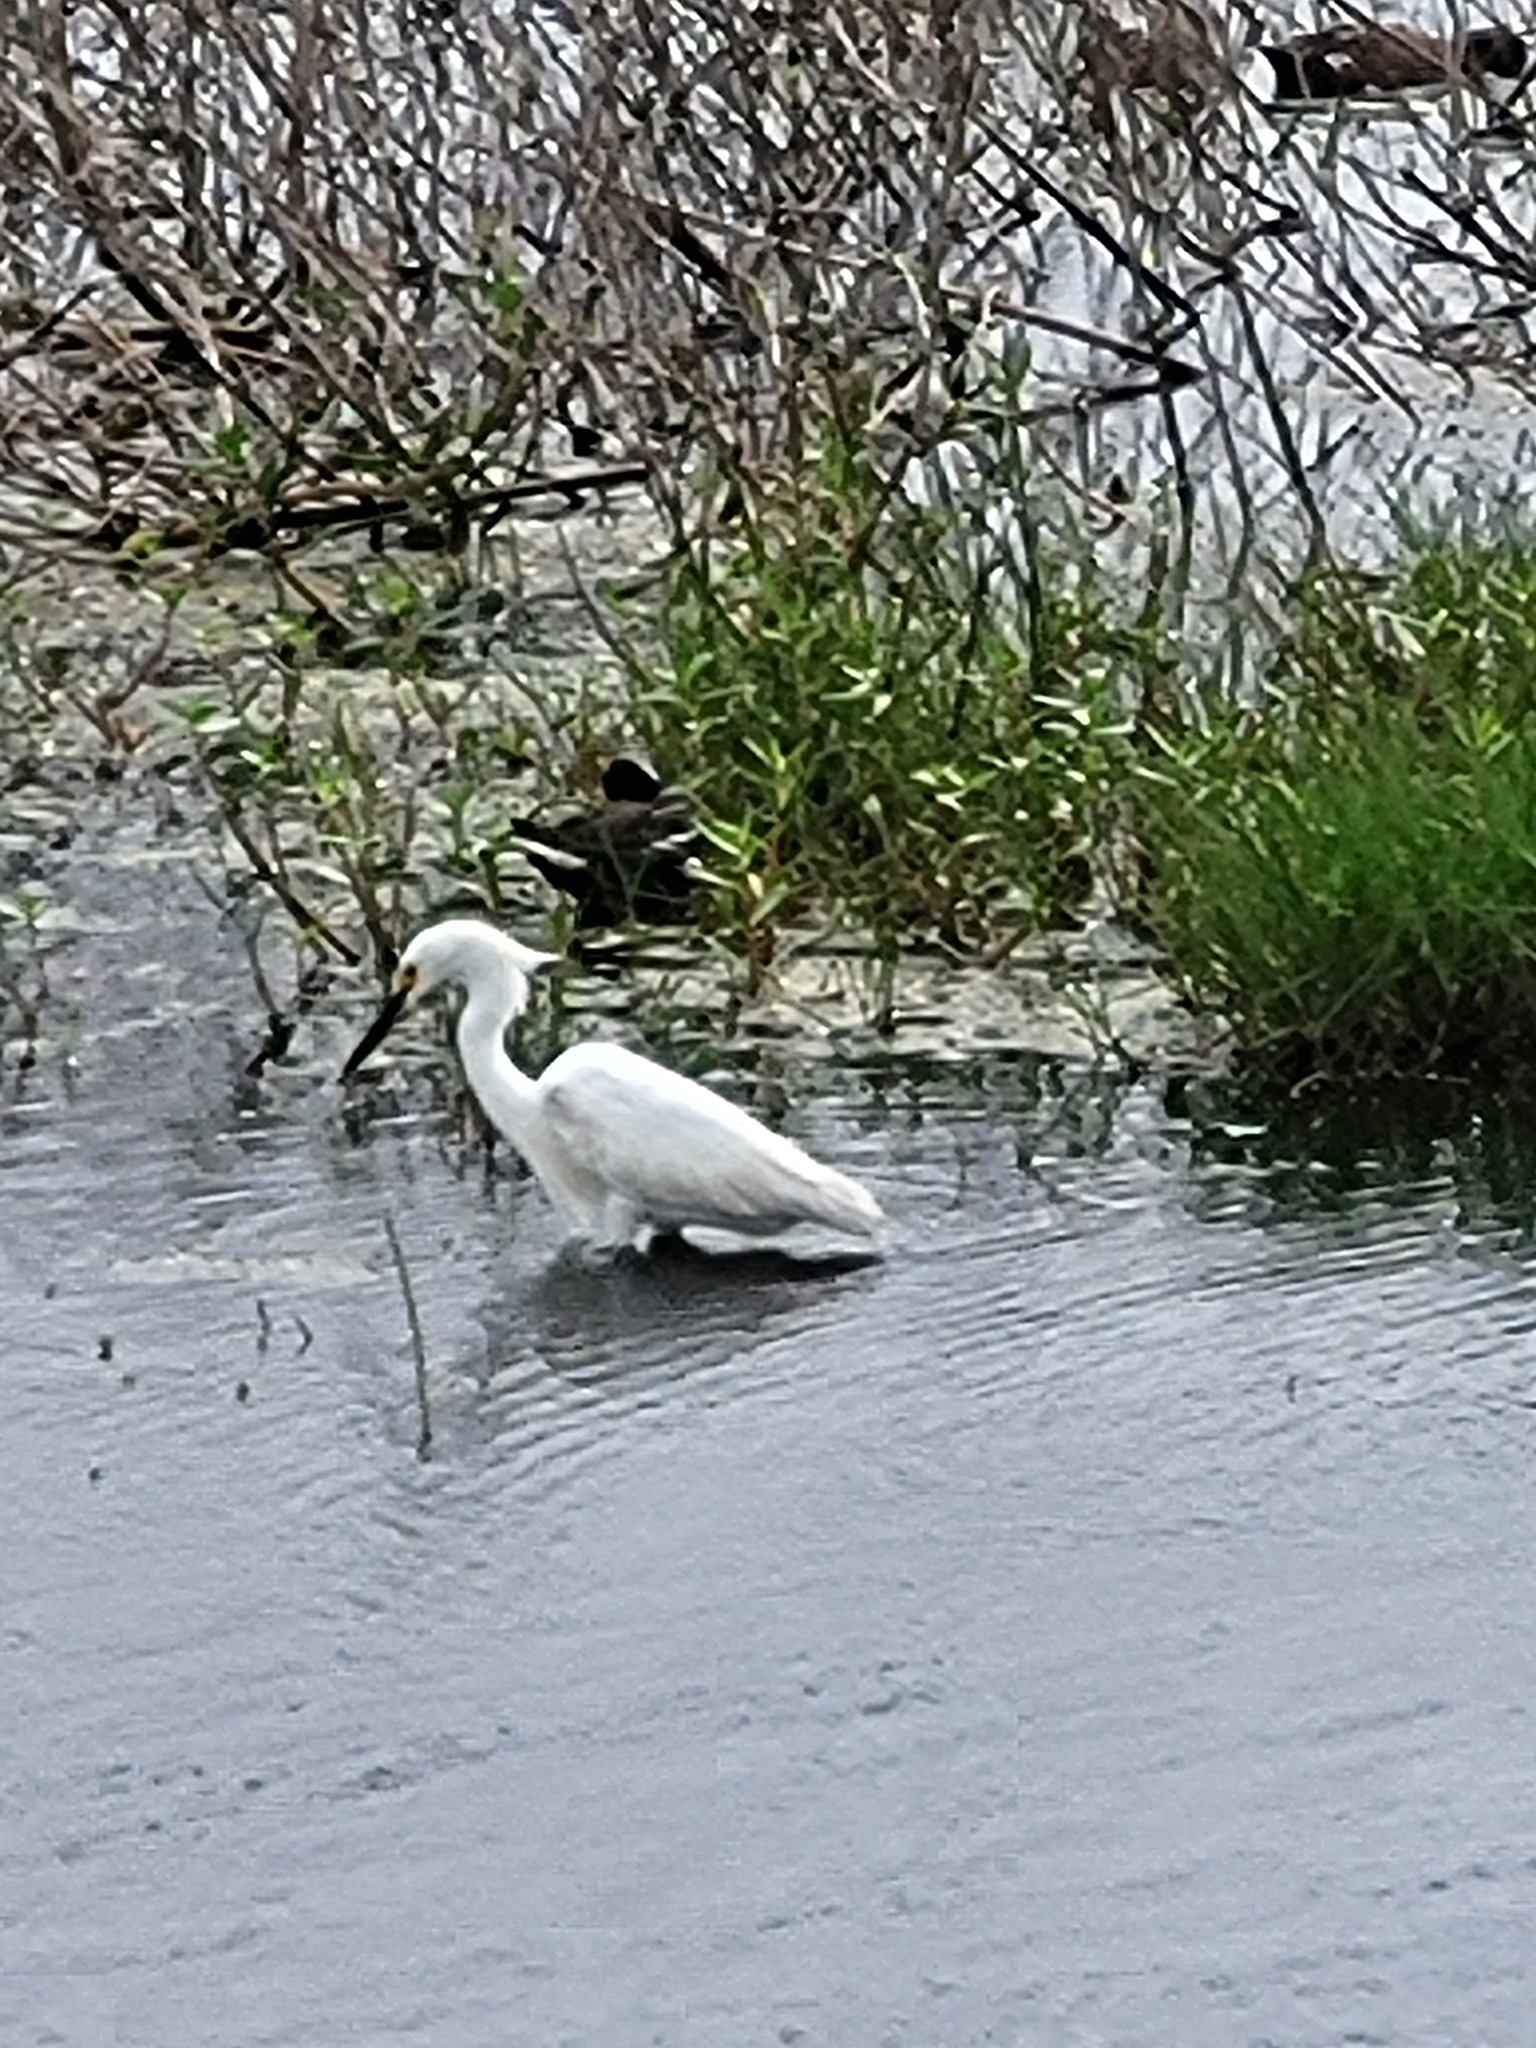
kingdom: Animalia
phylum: Chordata
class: Aves
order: Pelecaniformes
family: Ardeidae
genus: Egretta
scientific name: Egretta thula
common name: Snowy egret
